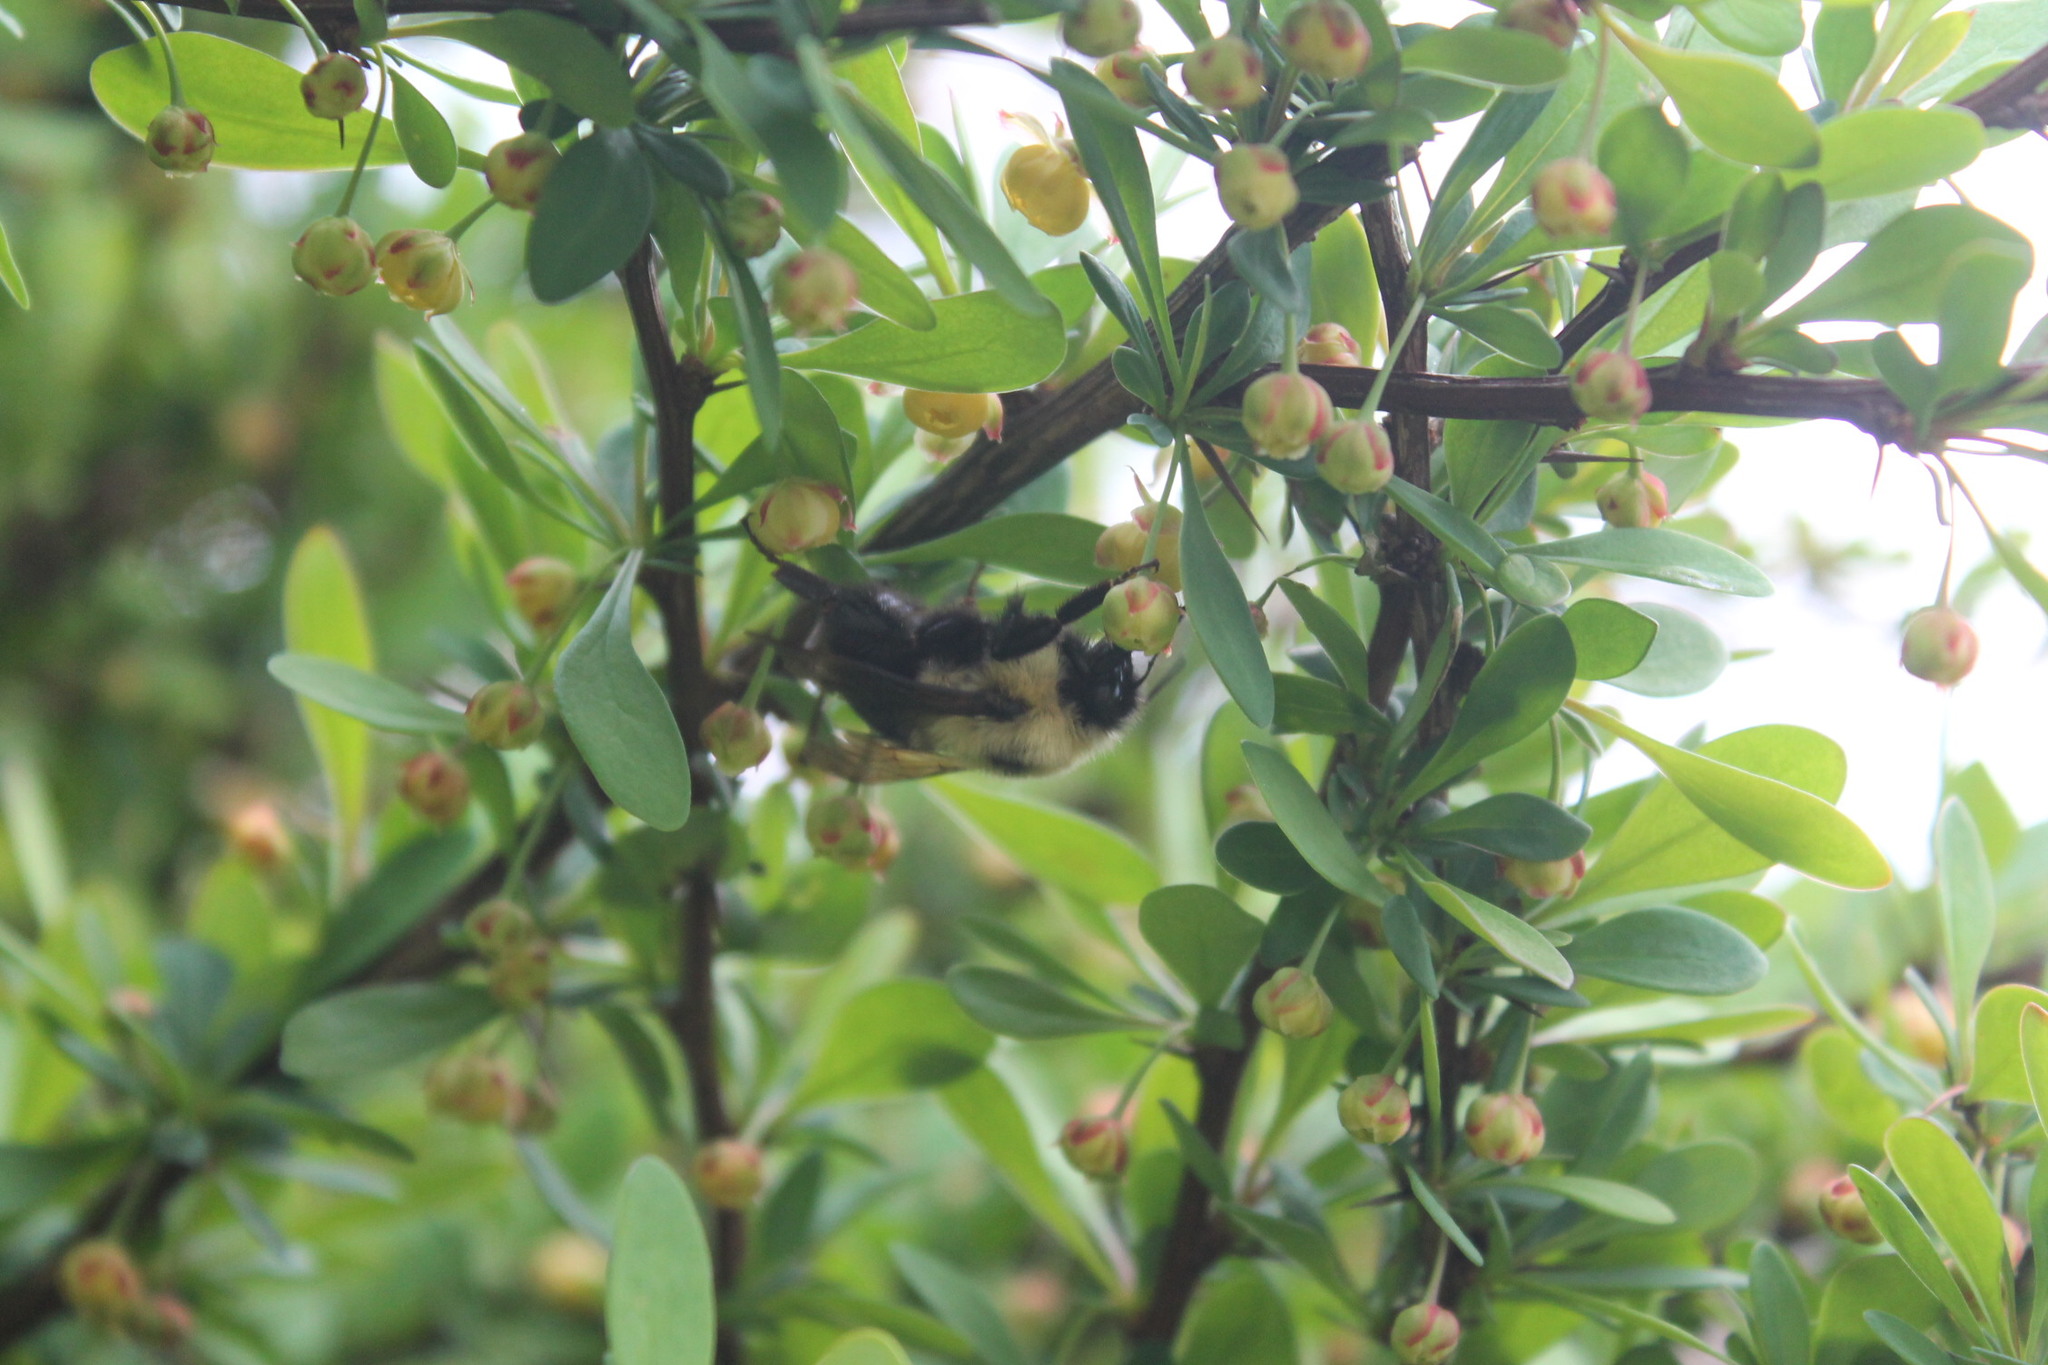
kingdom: Animalia
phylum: Arthropoda
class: Insecta
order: Hymenoptera
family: Apidae
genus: Bombus
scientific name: Bombus bimaculatus
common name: Two-spotted bumble bee
